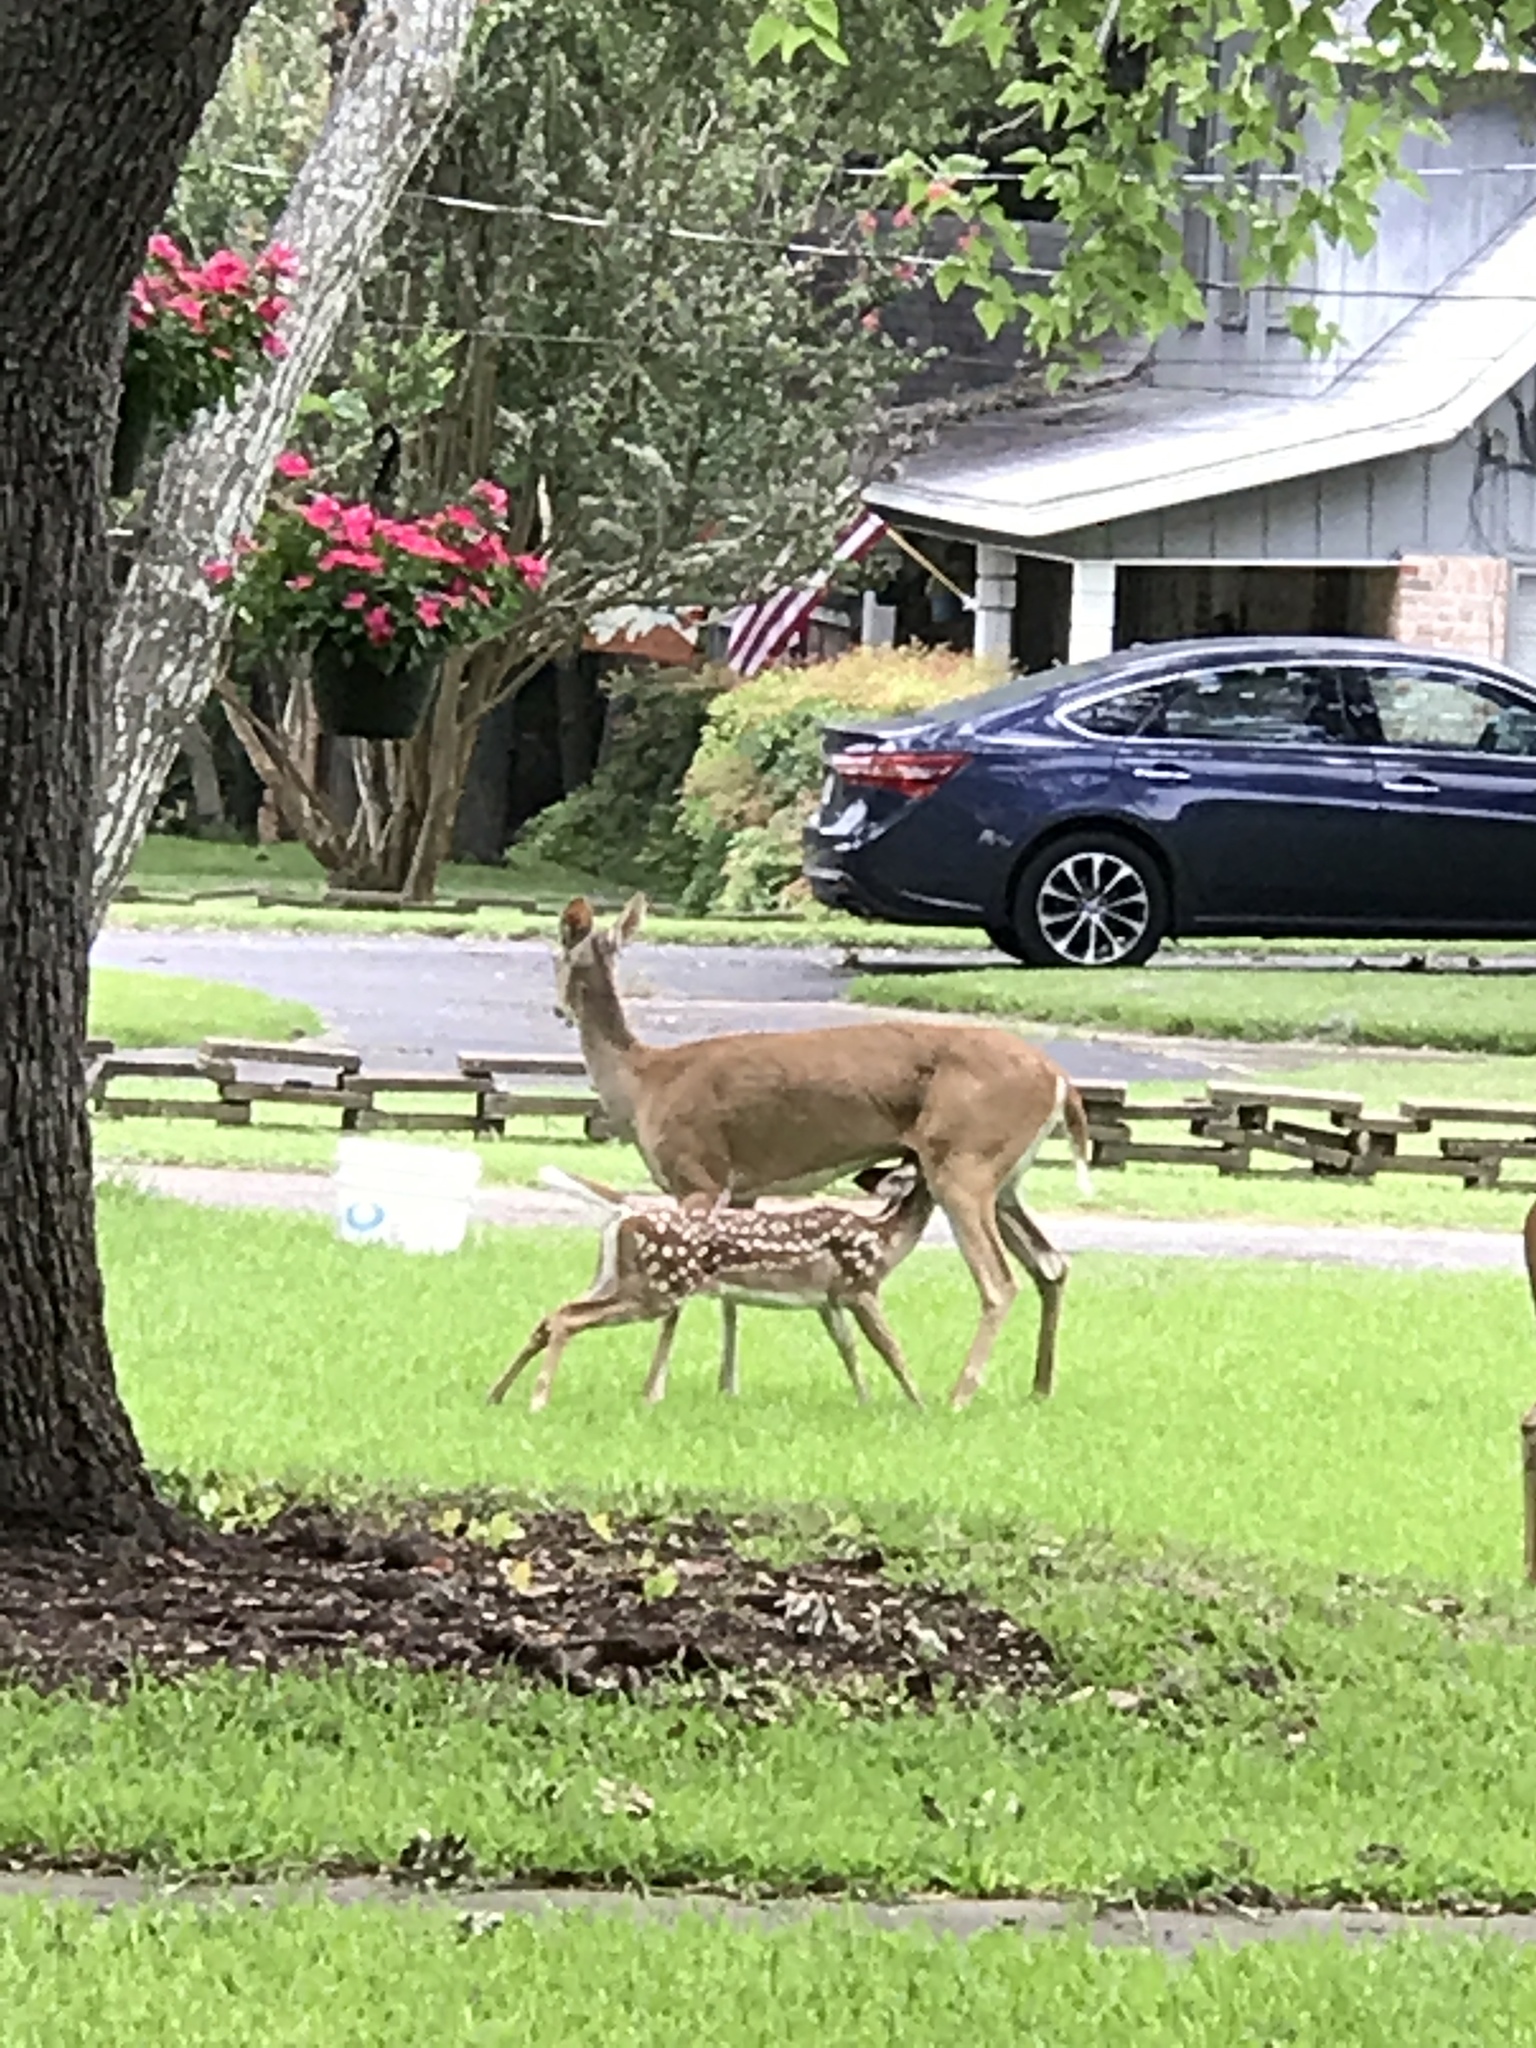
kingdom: Animalia
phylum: Chordata
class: Mammalia
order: Artiodactyla
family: Cervidae
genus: Odocoileus
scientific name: Odocoileus virginianus
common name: White-tailed deer
